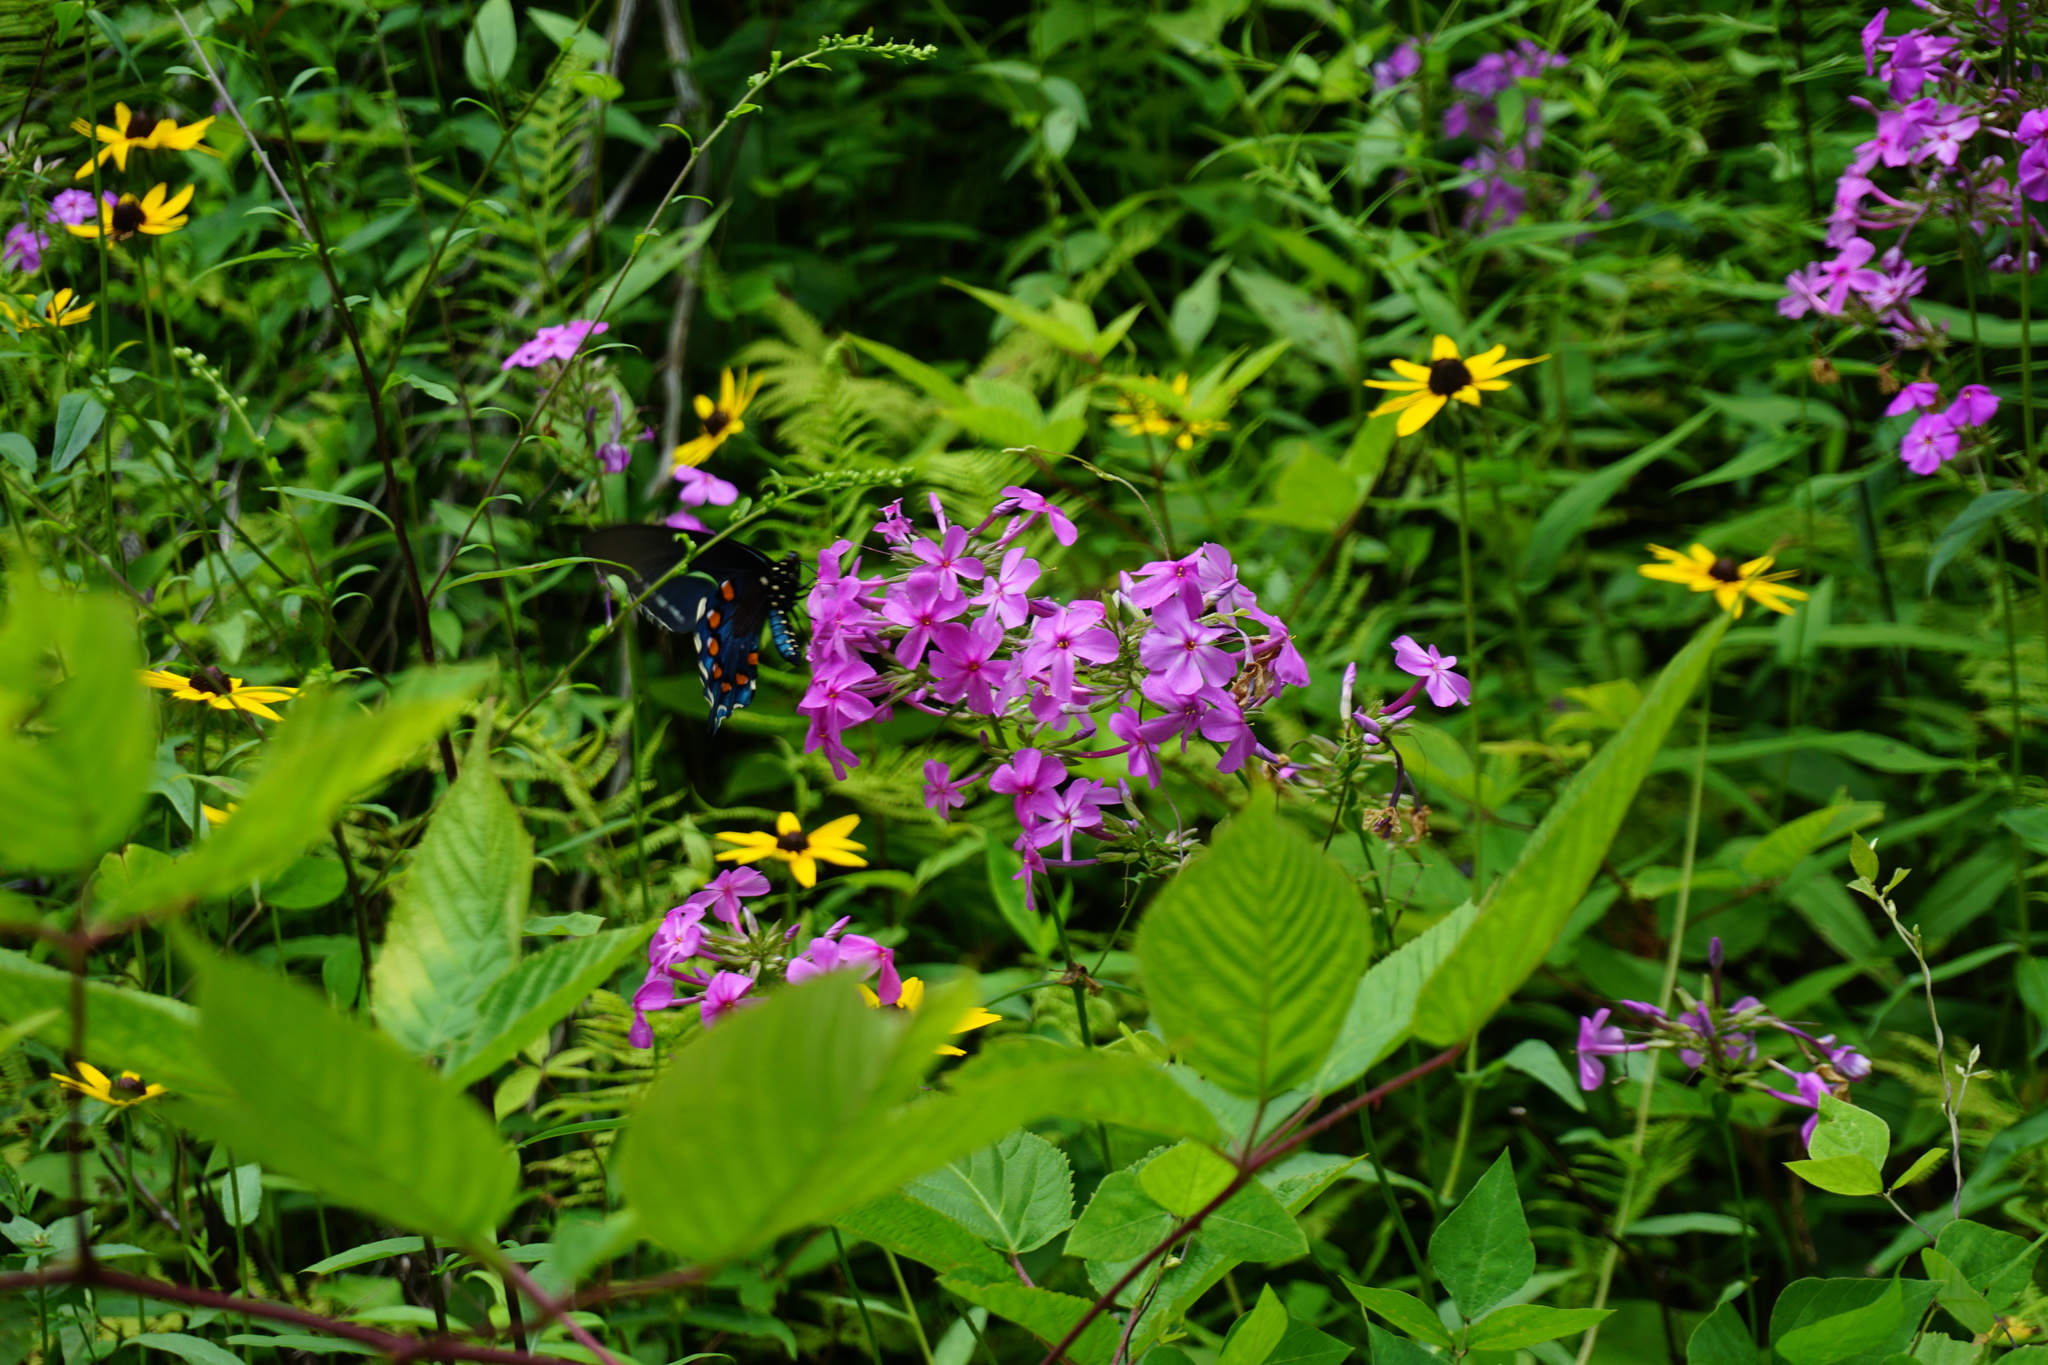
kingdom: Plantae
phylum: Tracheophyta
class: Magnoliopsida
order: Ericales
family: Polemoniaceae
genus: Phlox
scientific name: Phlox maculata
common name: Meadow phlox
